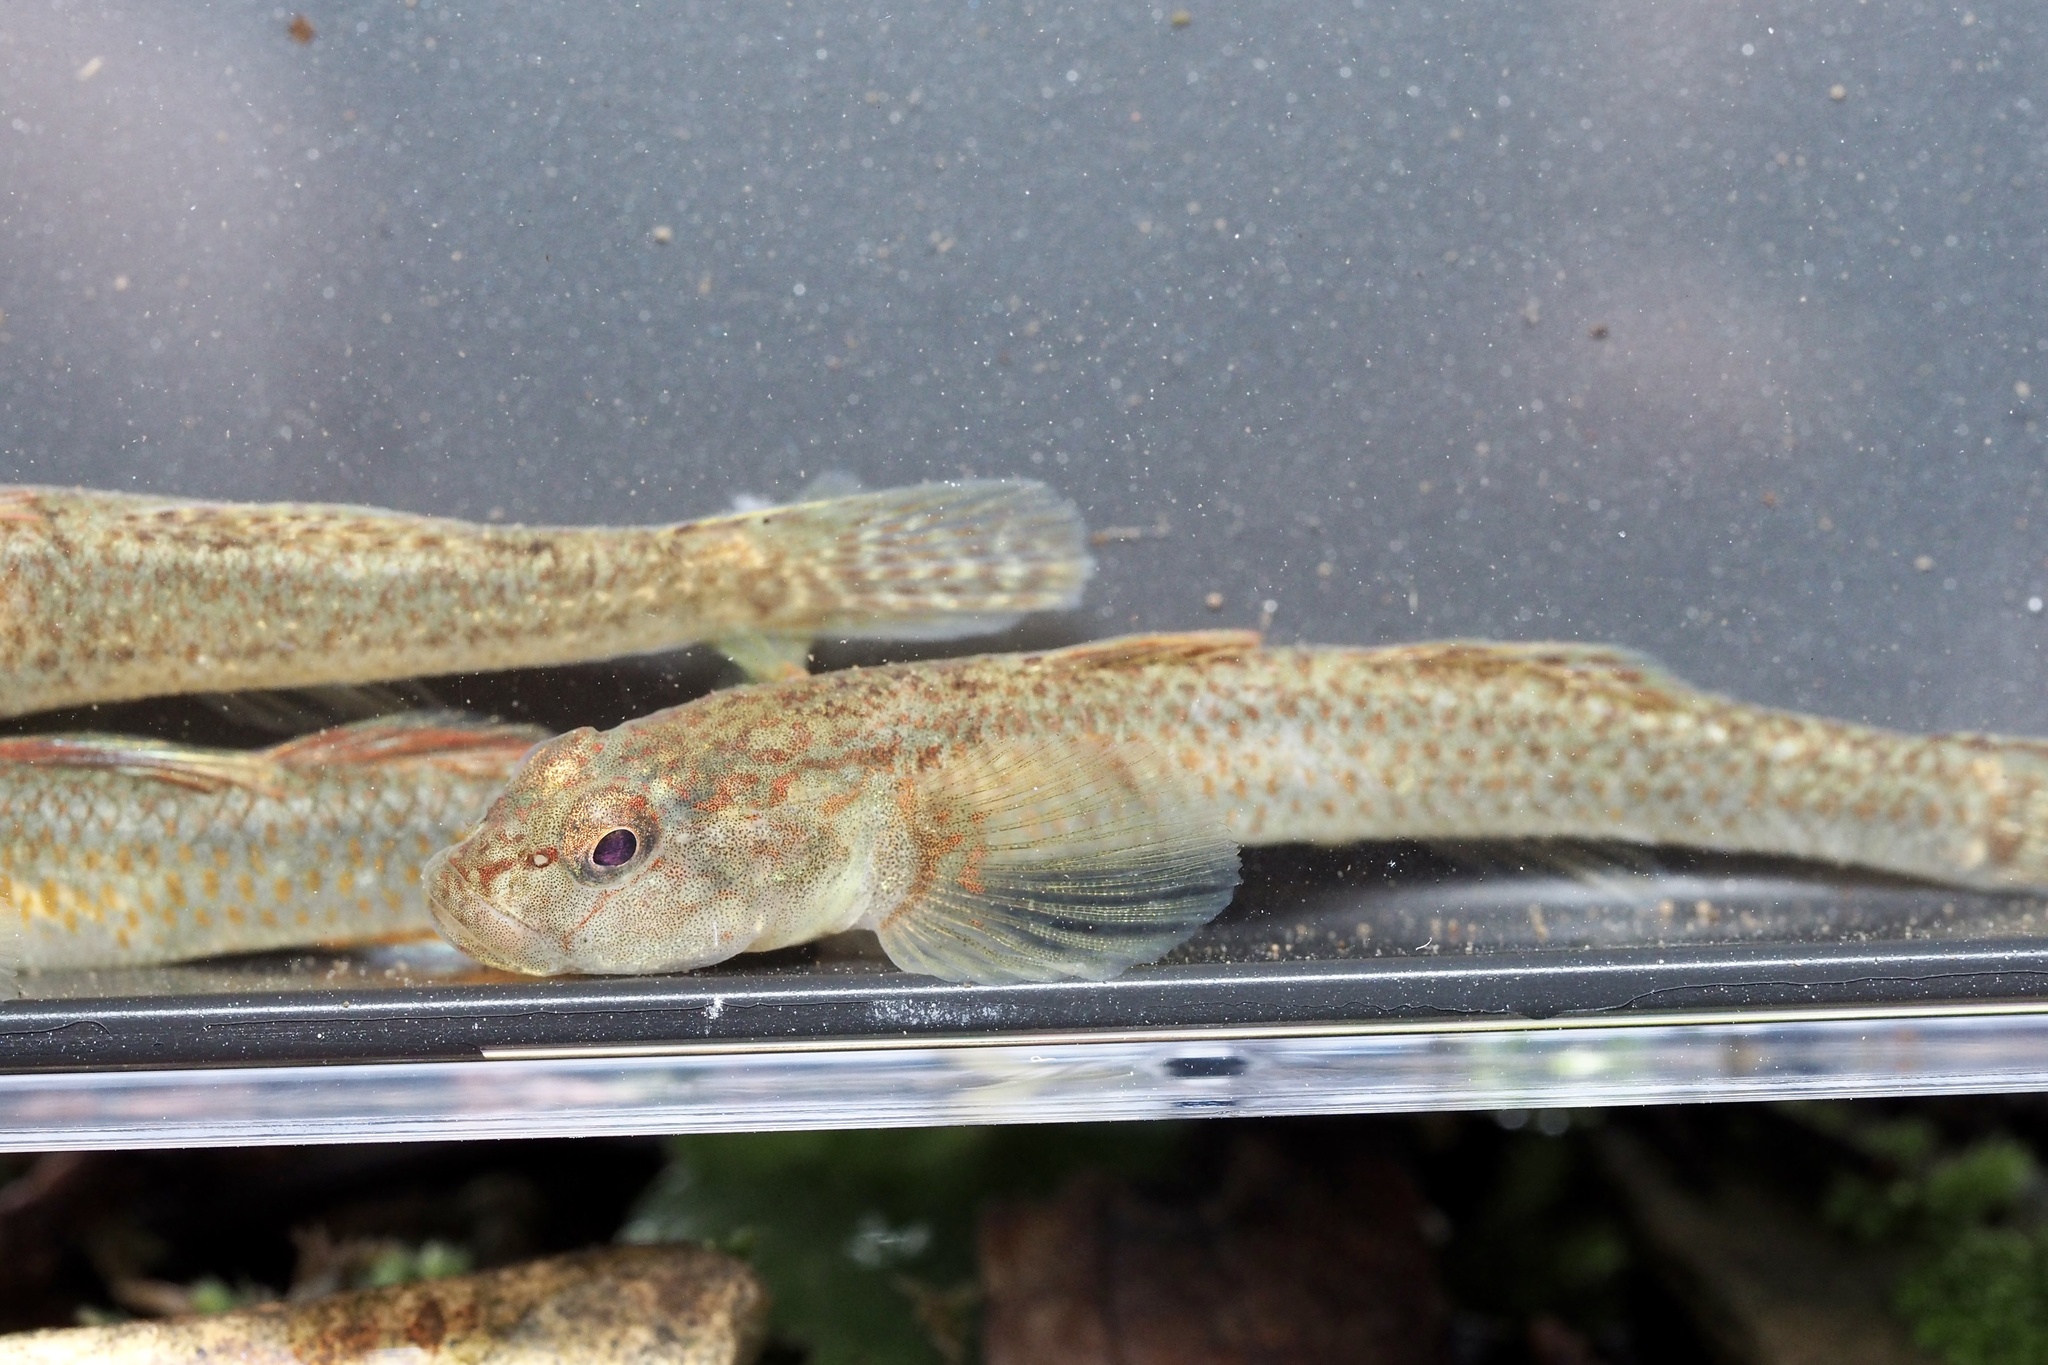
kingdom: Animalia
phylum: Chordata
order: Perciformes
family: Gobiidae
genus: Rhinogobius
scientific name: Rhinogobius flumineus
